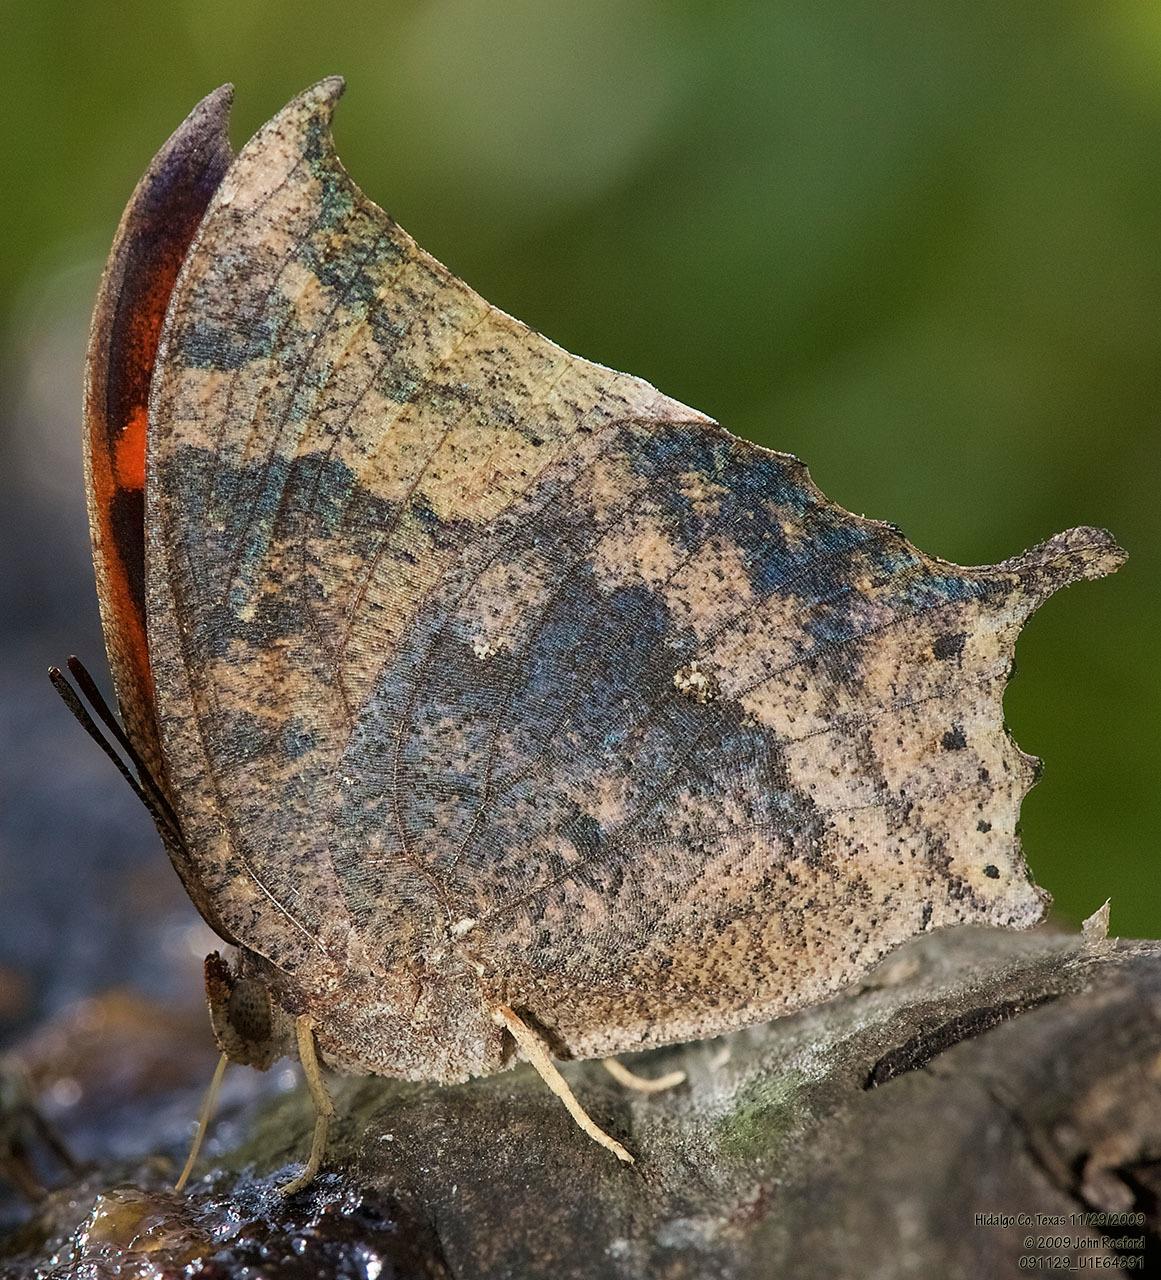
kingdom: Animalia
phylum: Arthropoda
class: Insecta
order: Lepidoptera
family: Nymphalidae
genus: Anaea
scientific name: Anaea aidea
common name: Tropical leafwing
